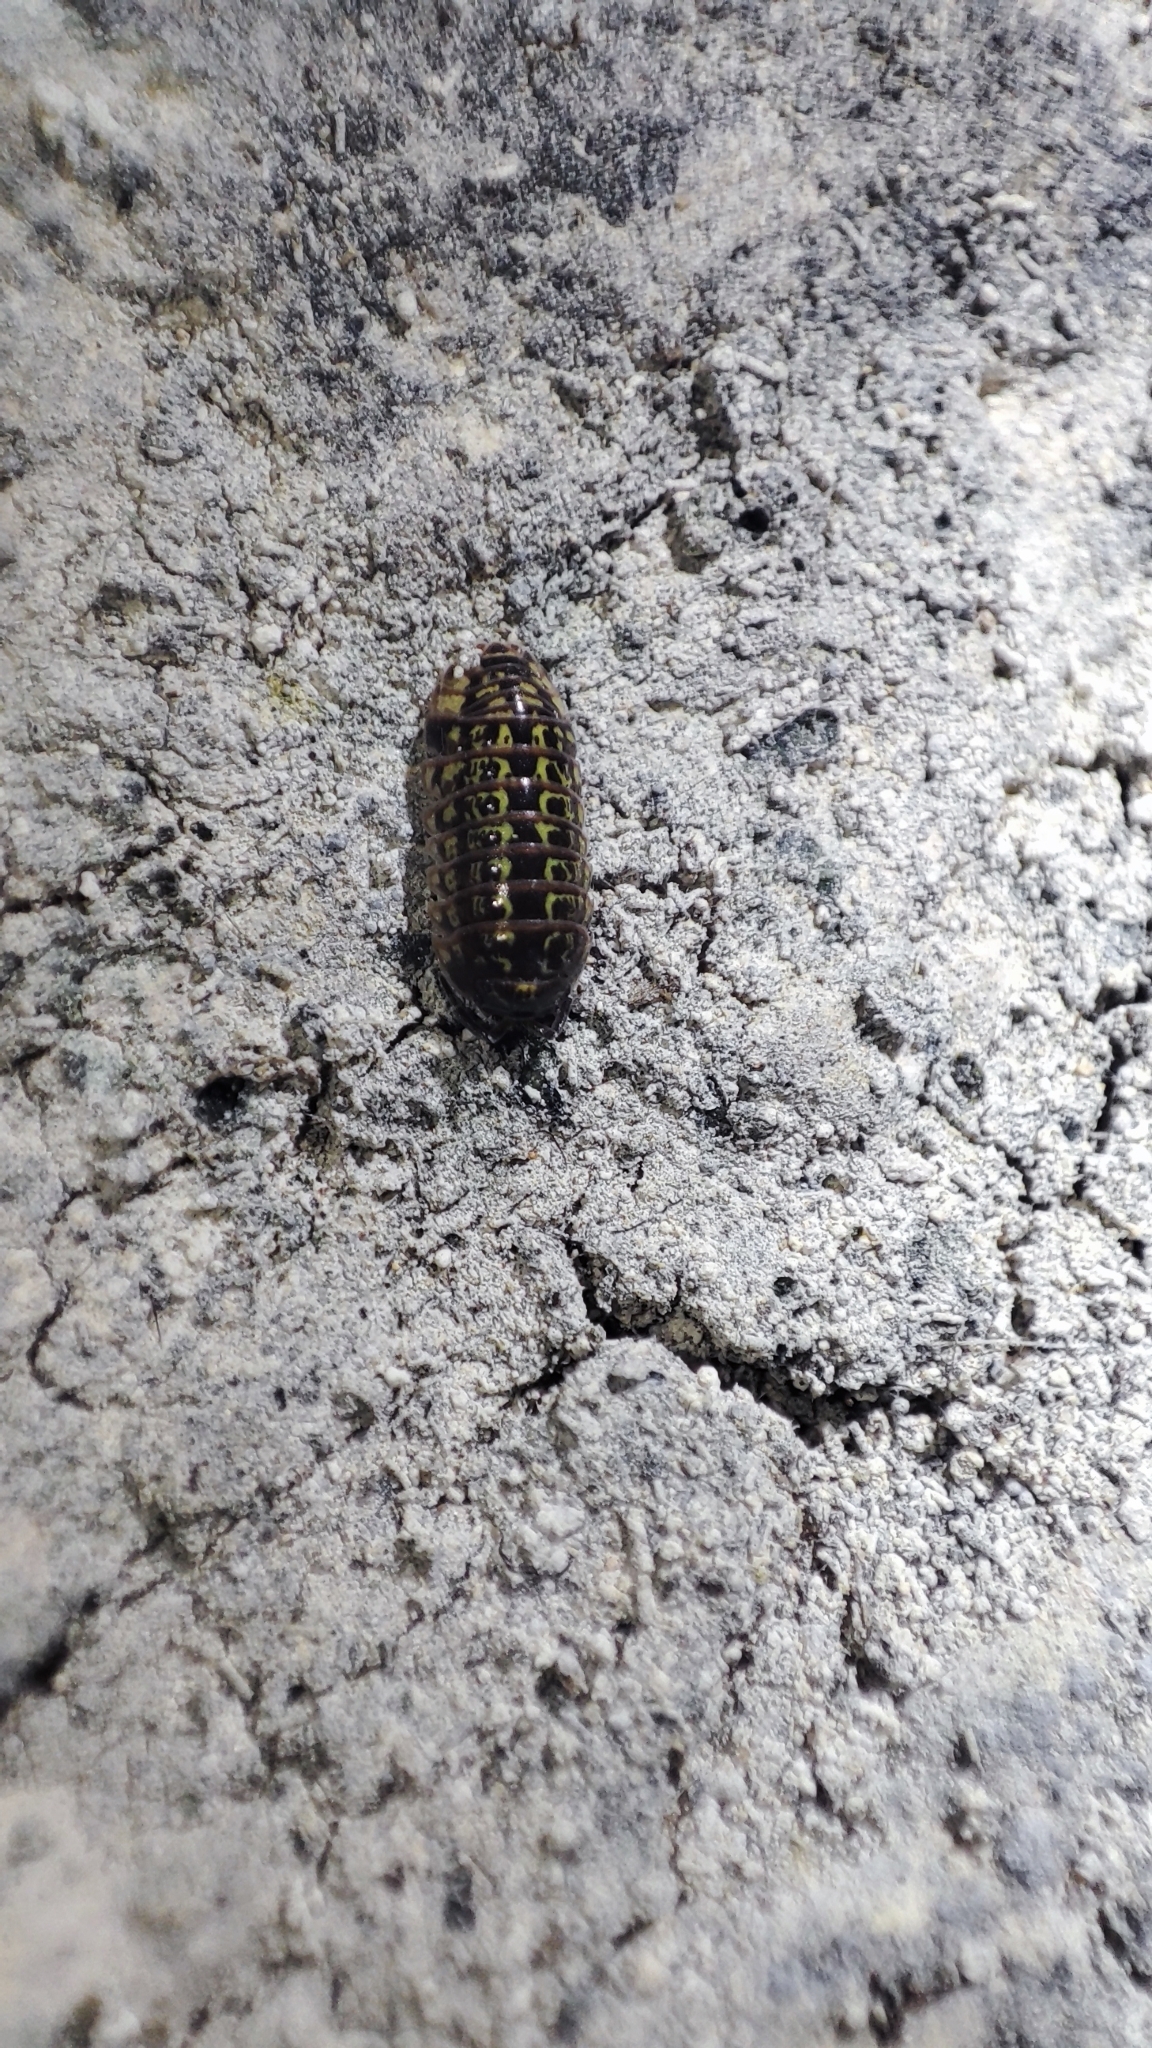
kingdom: Animalia
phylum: Arthropoda
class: Malacostraca
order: Isopoda
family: Armadillidiidae
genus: Armadillidium
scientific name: Armadillidium pictum
